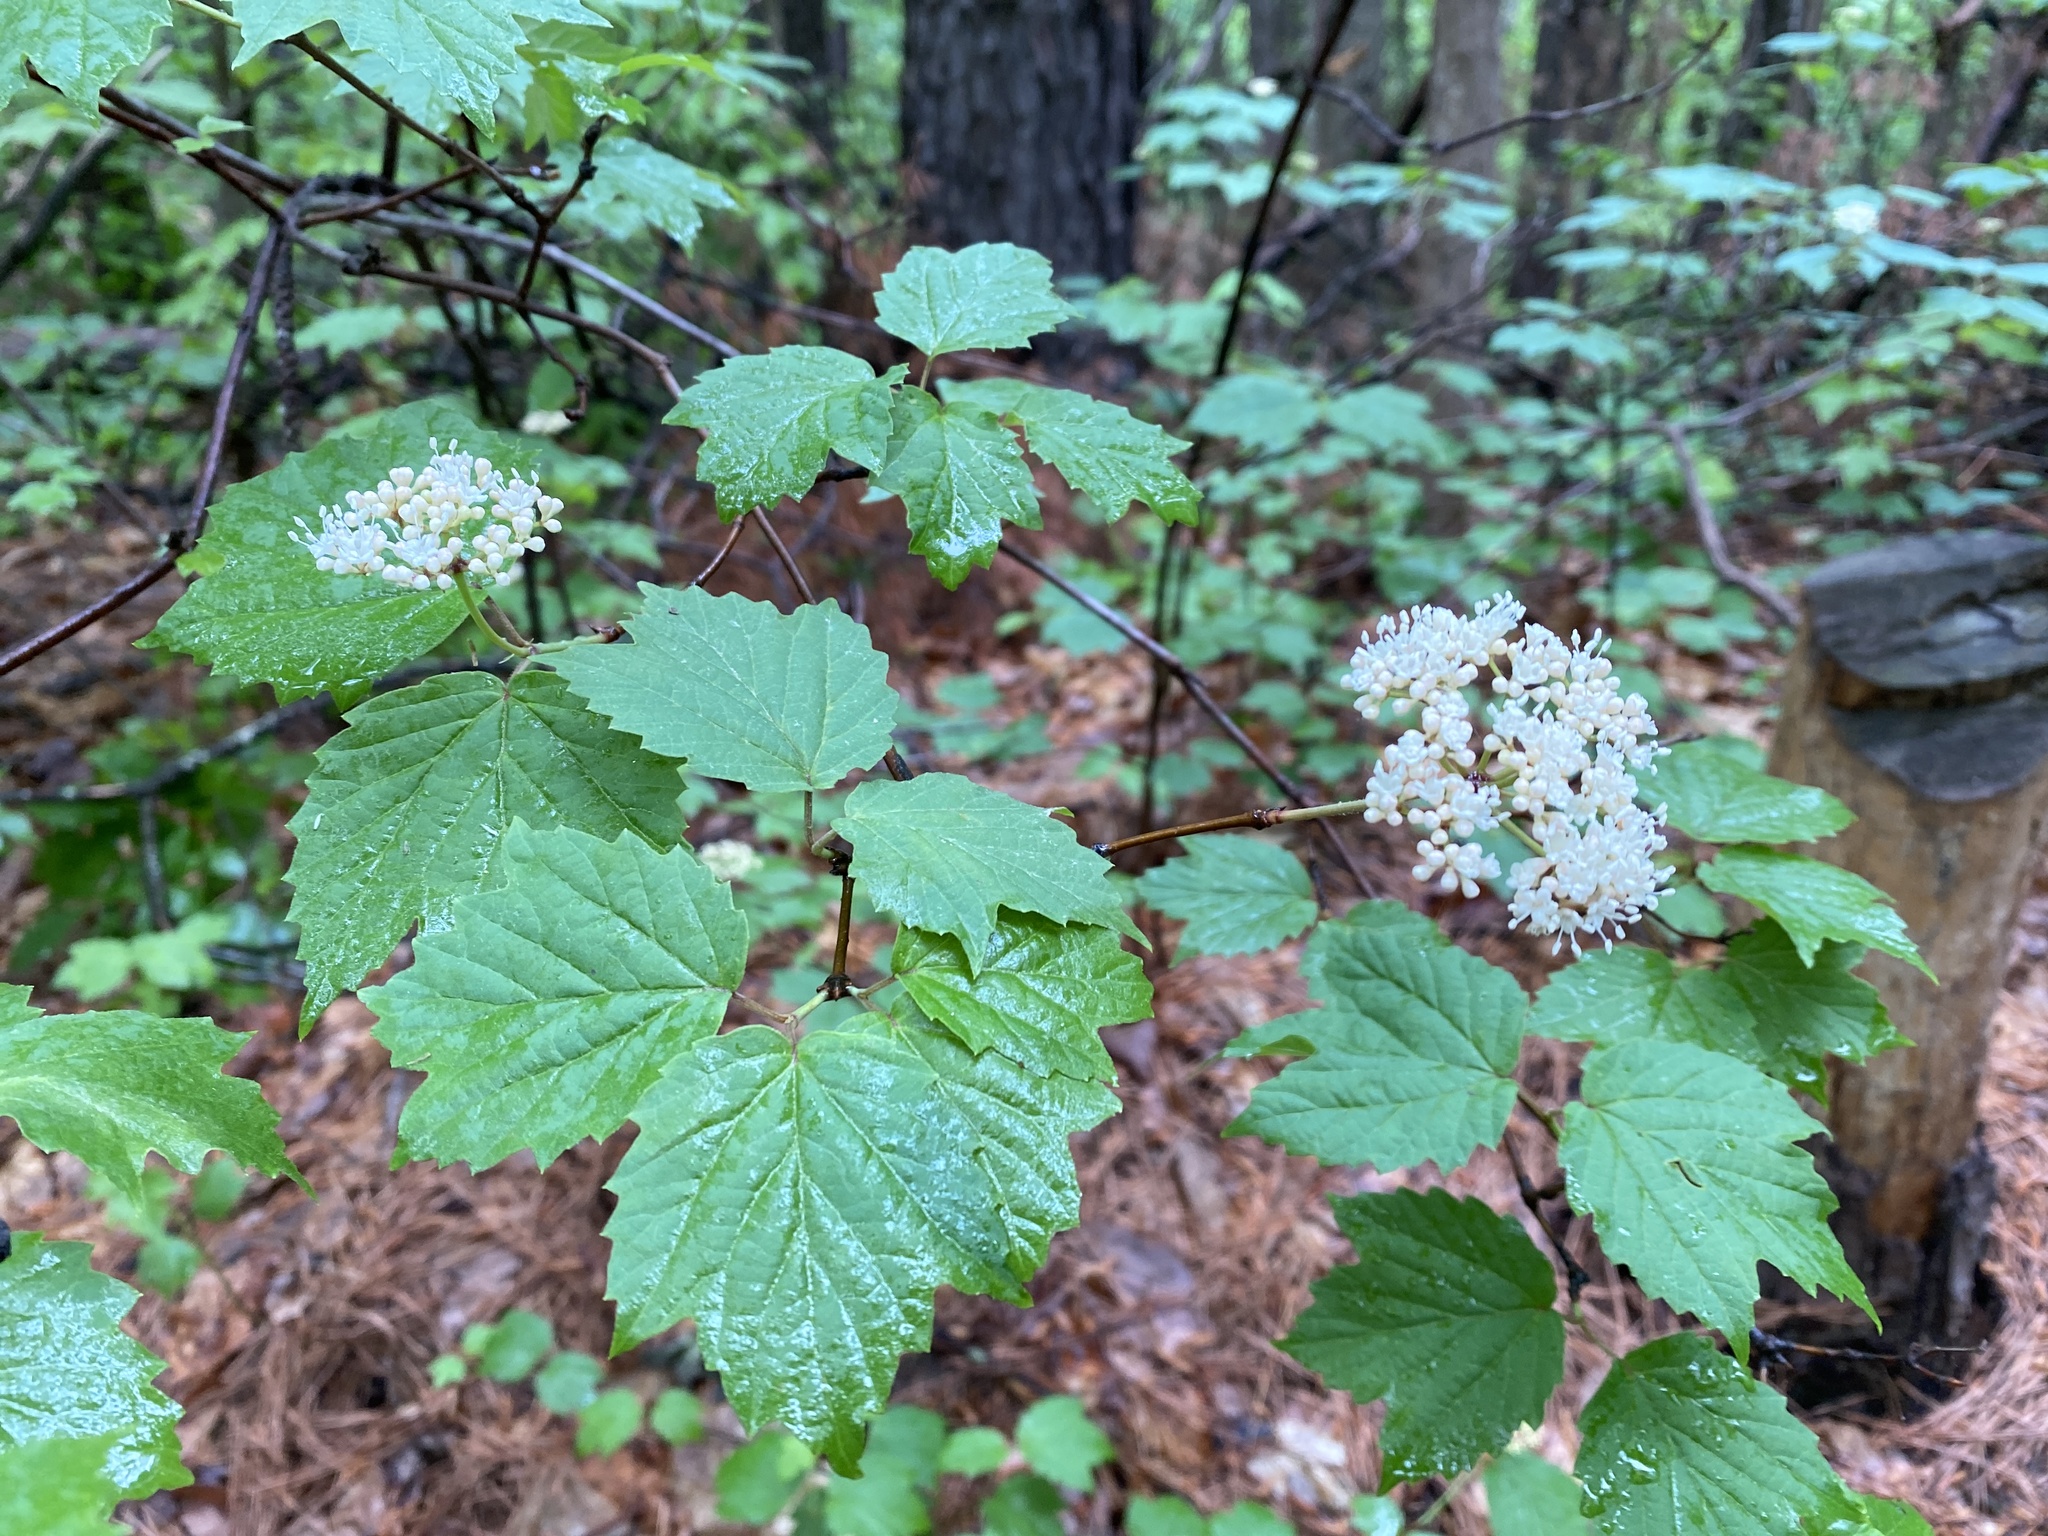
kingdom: Plantae
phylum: Tracheophyta
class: Magnoliopsida
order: Dipsacales
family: Viburnaceae
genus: Viburnum
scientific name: Viburnum acerifolium
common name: Dockmackie
